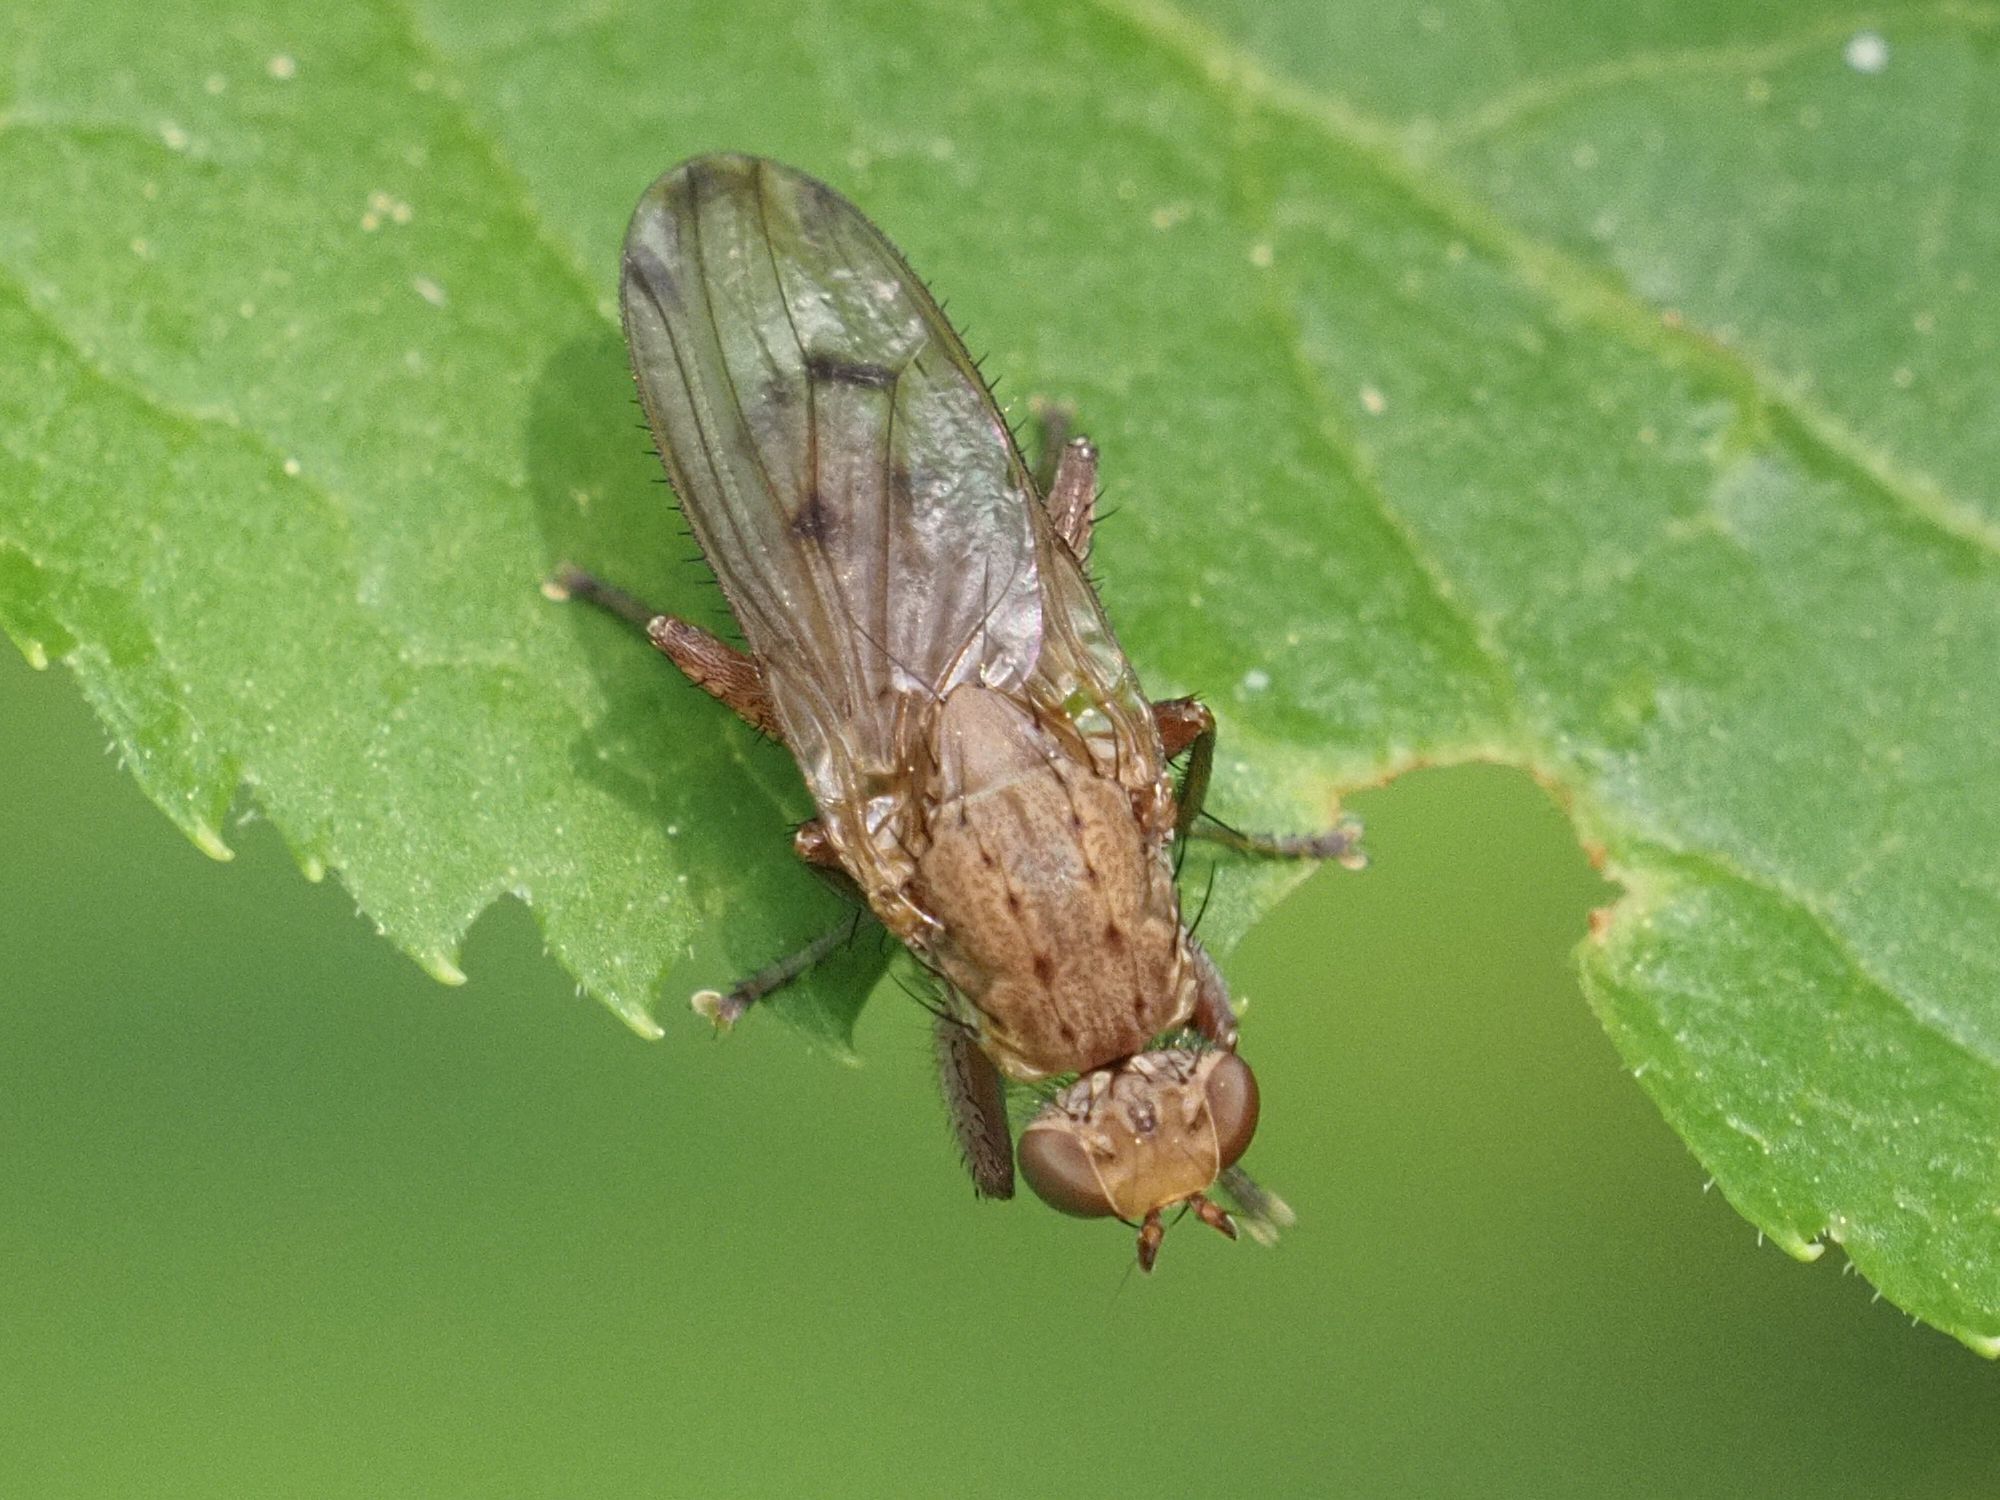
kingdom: Animalia
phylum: Arthropoda
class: Insecta
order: Diptera
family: Heleomyzidae
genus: Suillia
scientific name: Suillia ustulata
